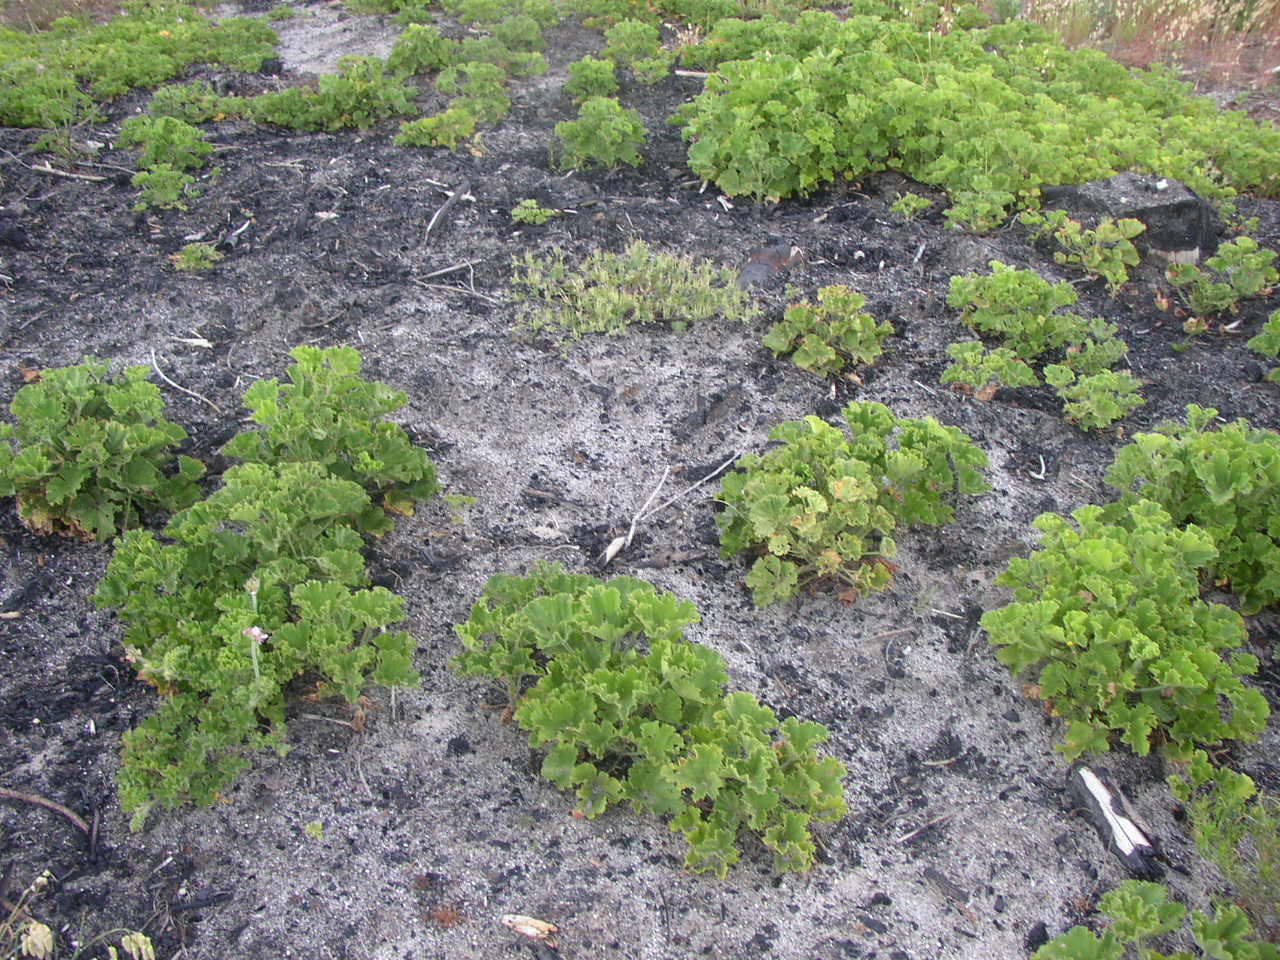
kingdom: Plantae
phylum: Tracheophyta
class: Magnoliopsida
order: Geraniales
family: Geraniaceae
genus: Pelargonium
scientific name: Pelargonium cucullatum
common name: Tree pelargonium
